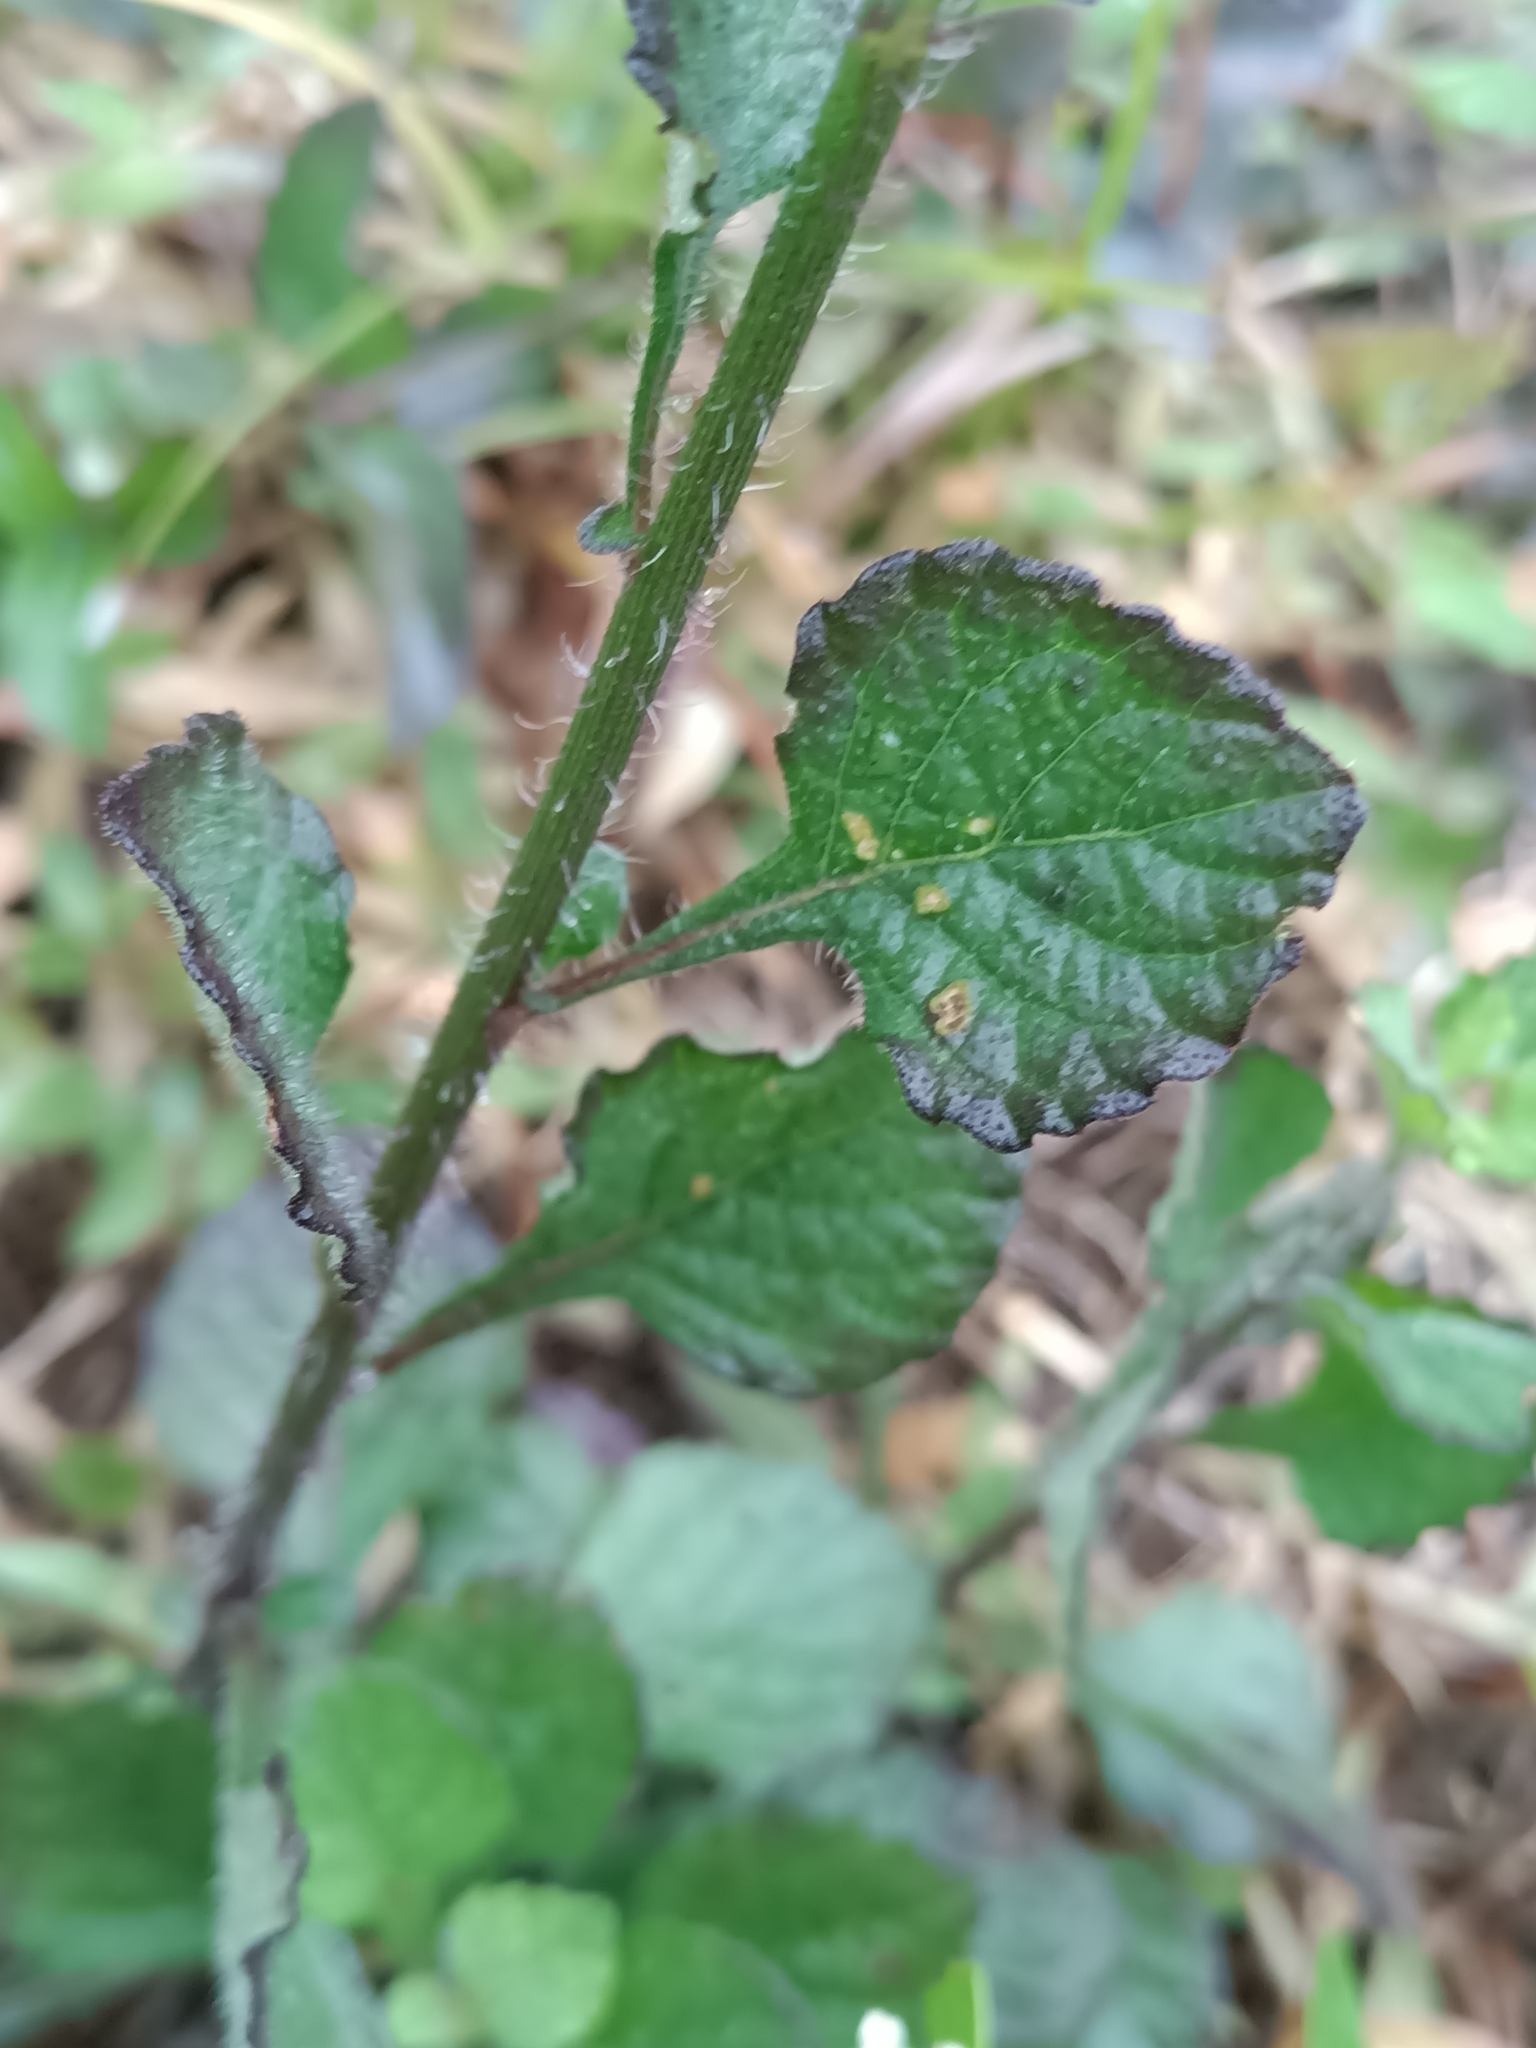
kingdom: Plantae
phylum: Tracheophyta
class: Magnoliopsida
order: Asterales
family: Asteraceae
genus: Cyanthillium
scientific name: Cyanthillium cinereum
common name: Little ironweed
